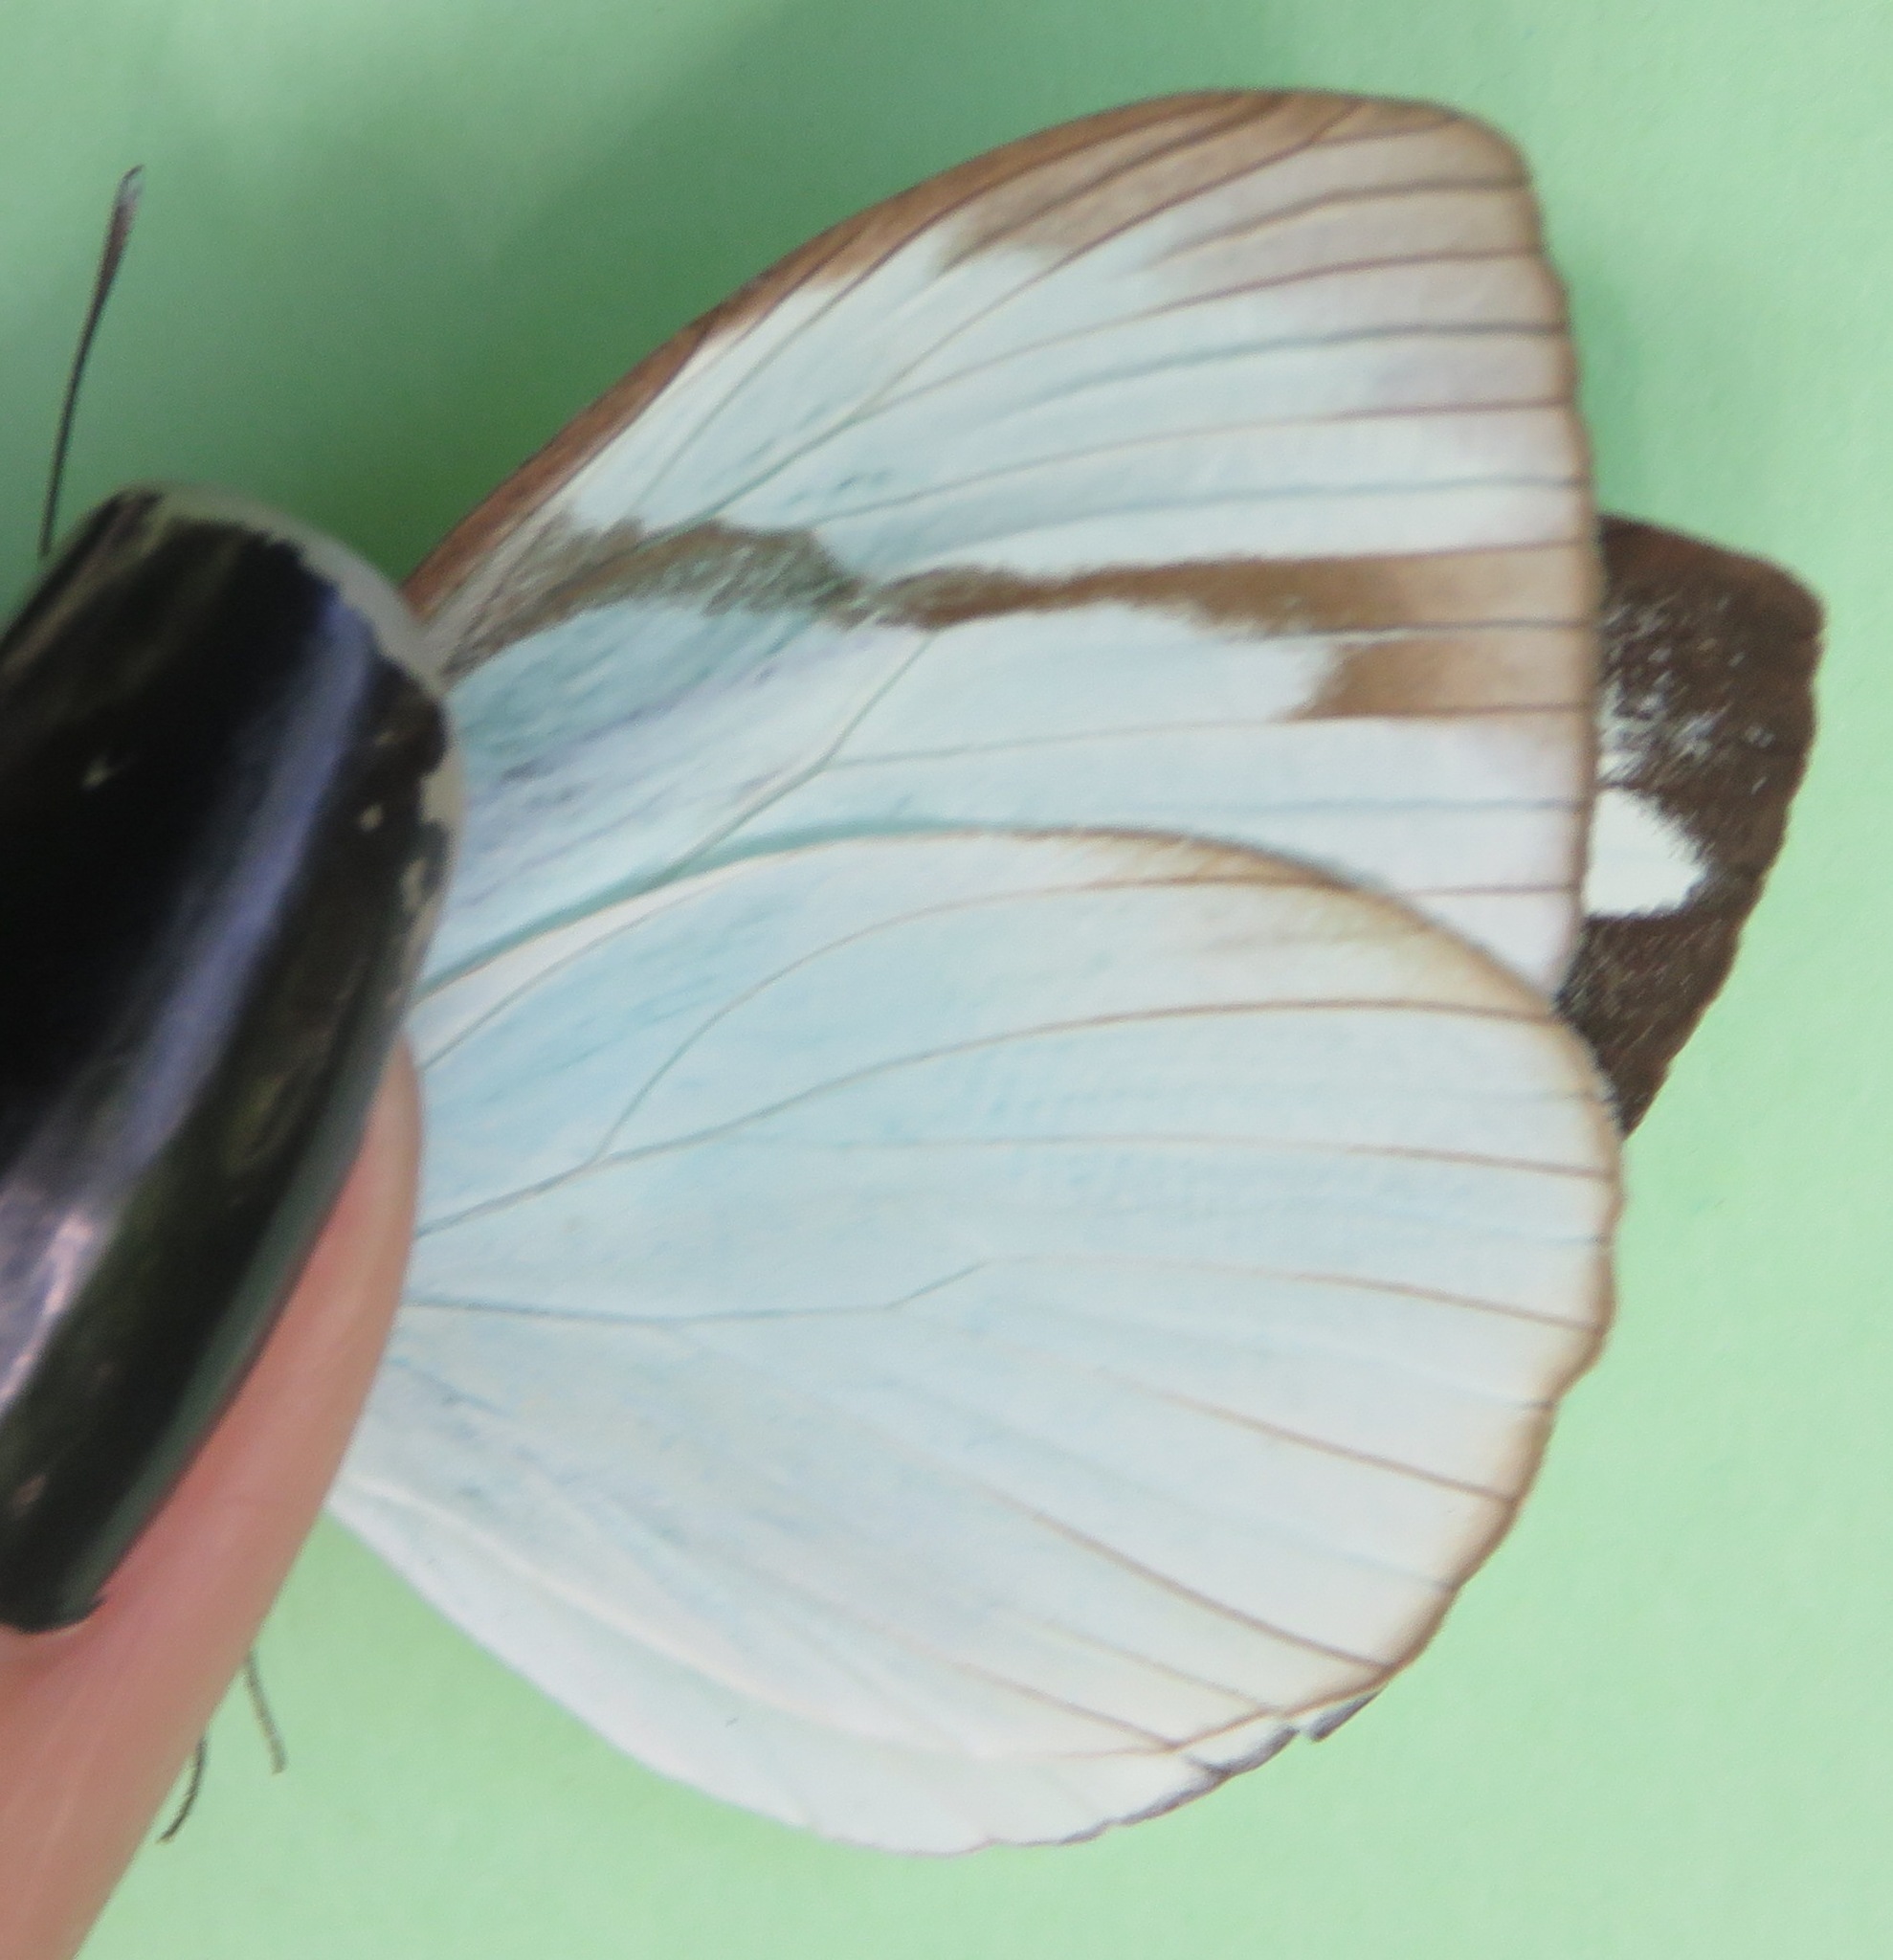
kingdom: Animalia
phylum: Arthropoda
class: Insecta
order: Lepidoptera
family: Pieridae
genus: Itaballia
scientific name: Itaballia demophile
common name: Cross-barred white
